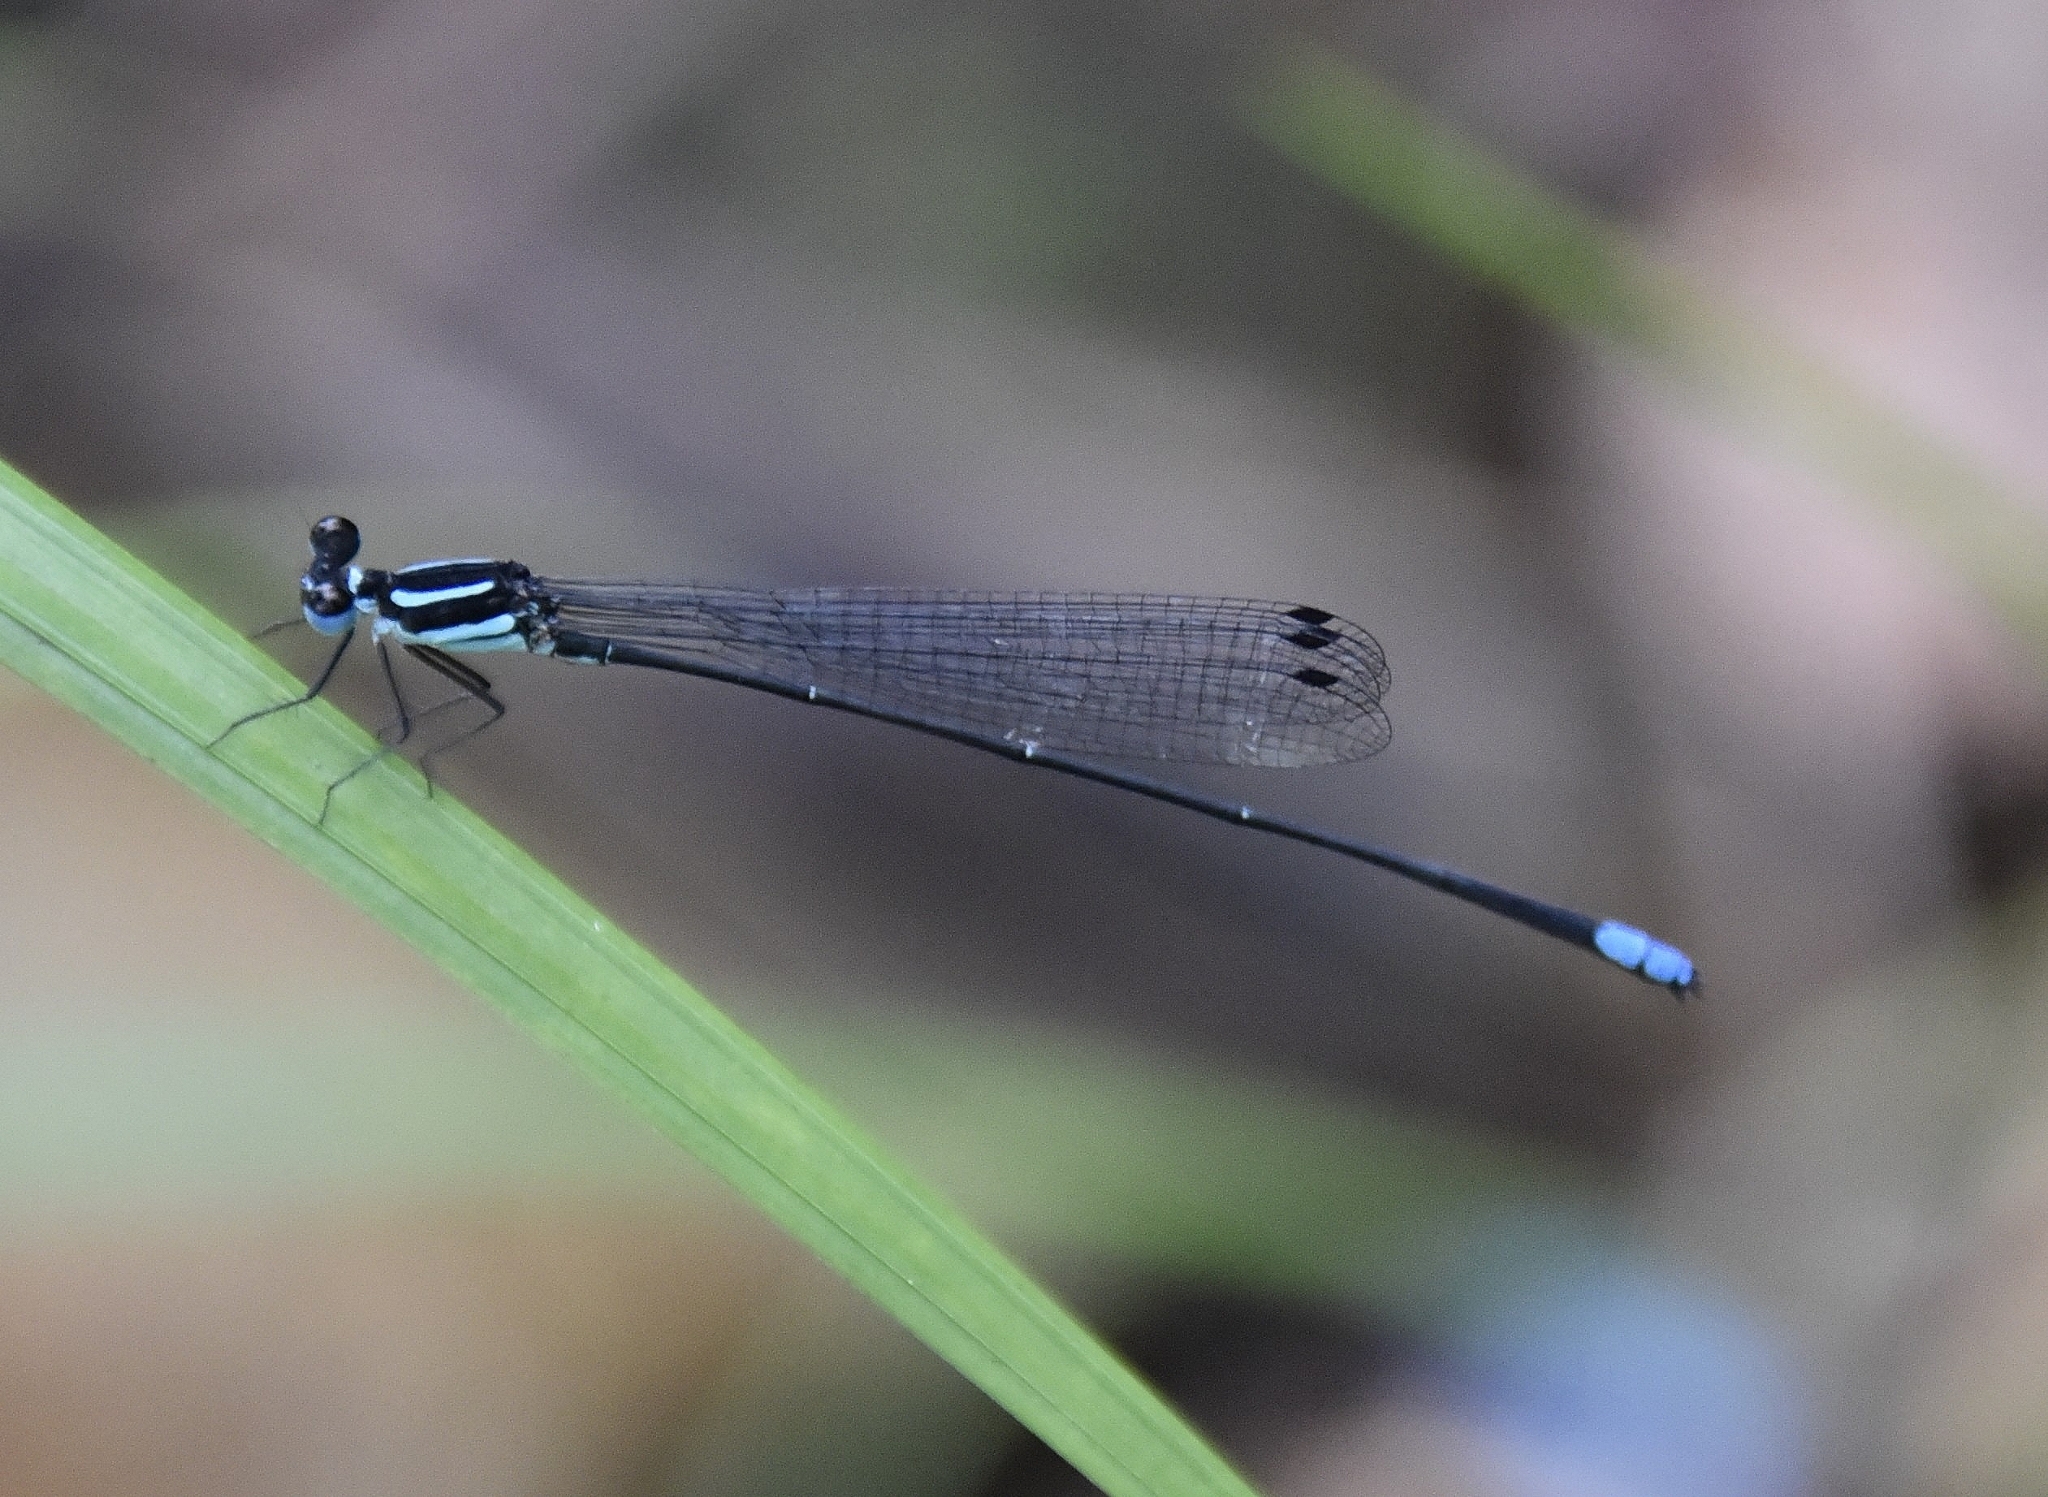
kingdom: Animalia
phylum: Arthropoda
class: Insecta
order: Odonata
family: Platycnemididae
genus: Melanoneura
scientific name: Melanoneura bilineata
